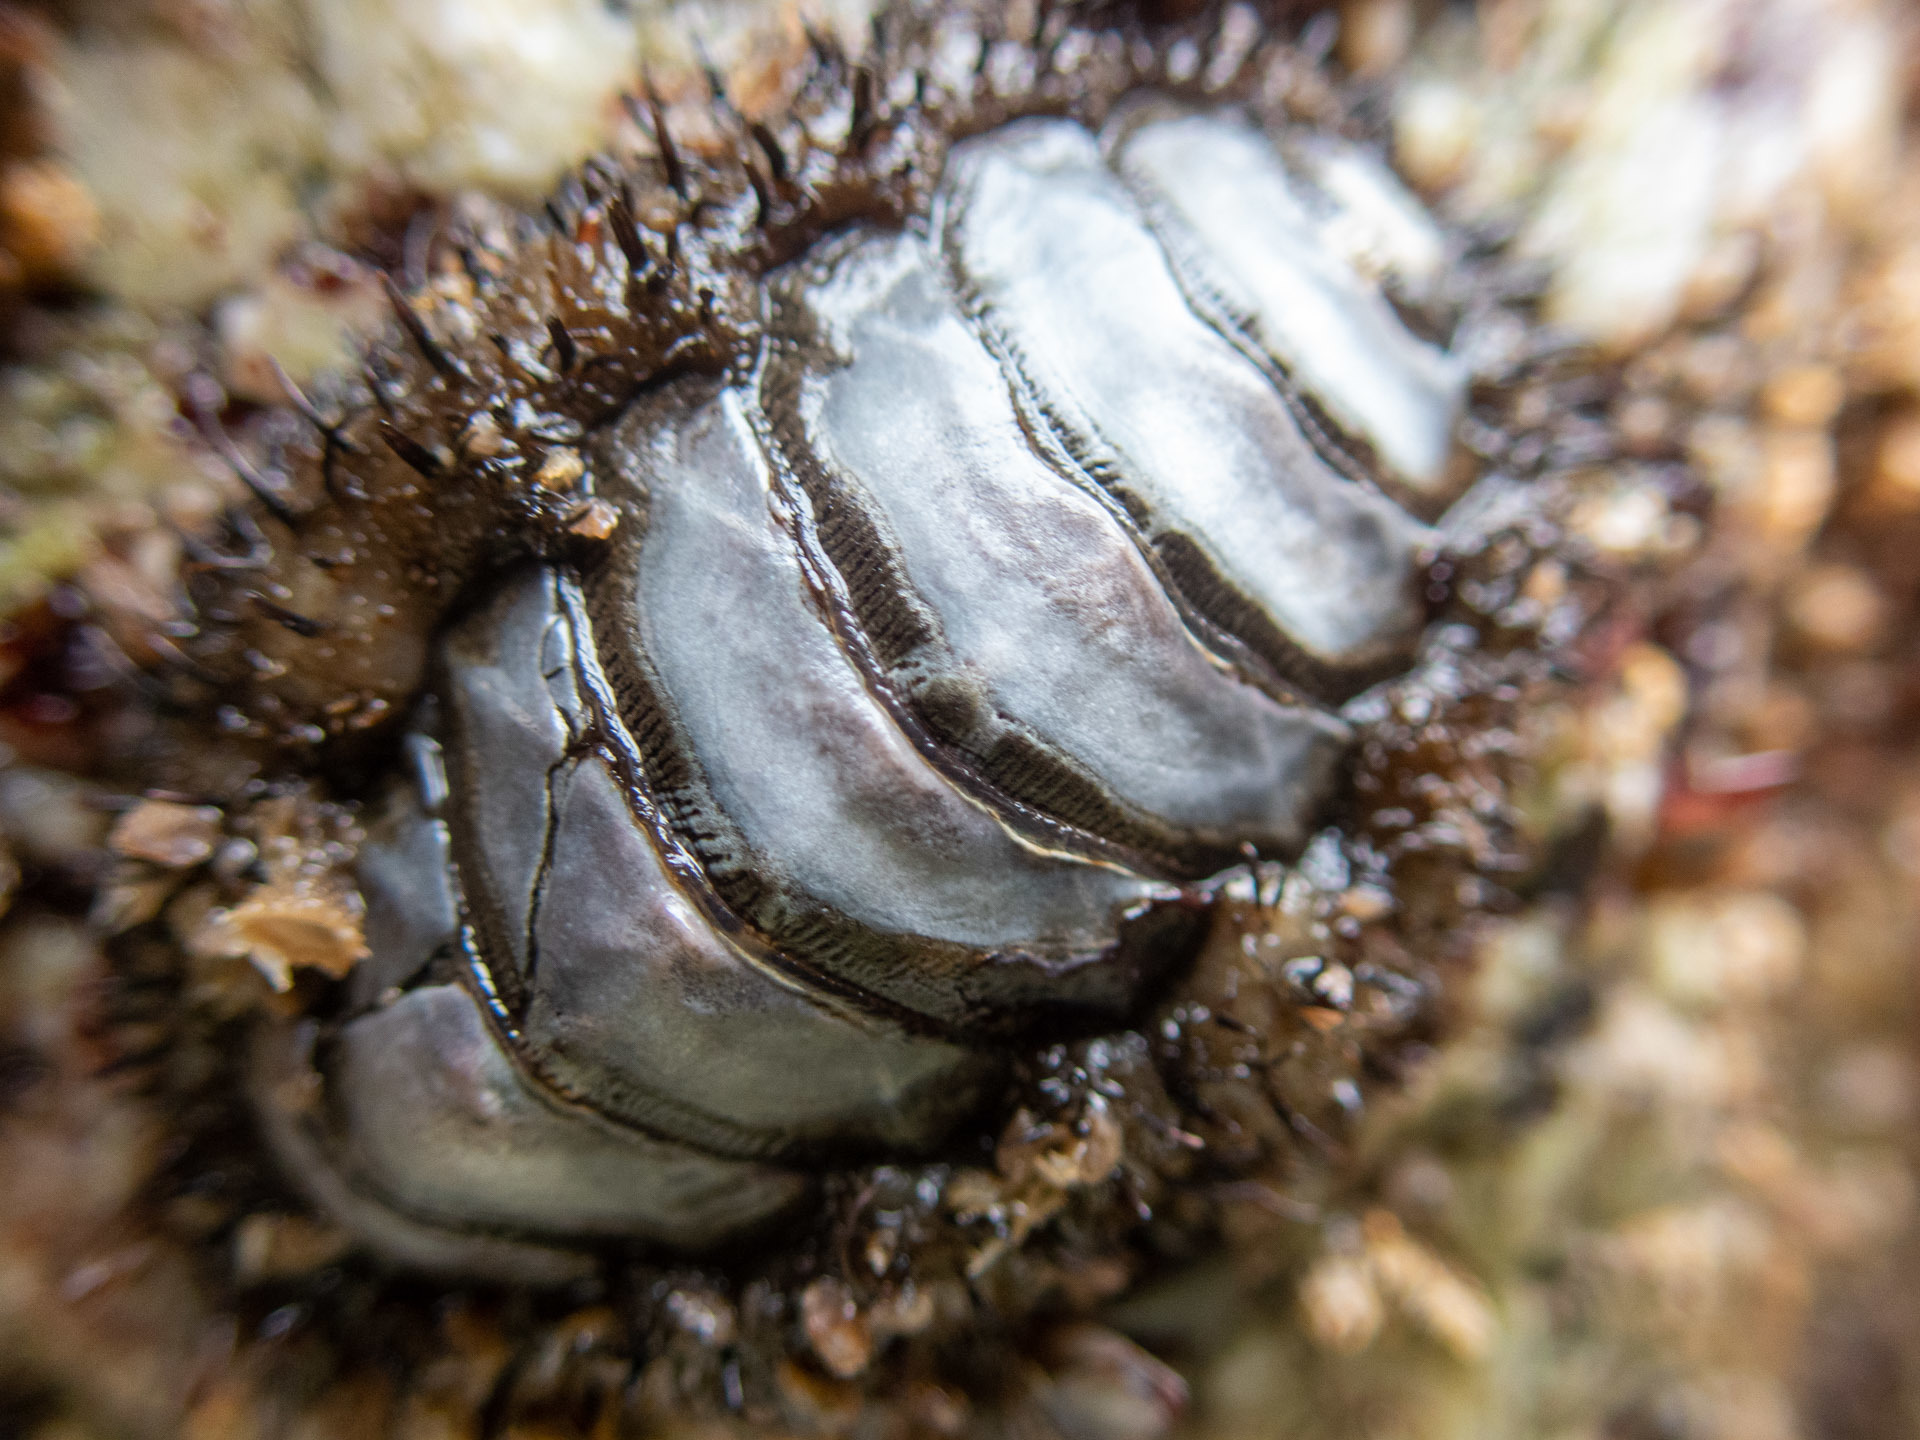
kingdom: Animalia
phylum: Mollusca
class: Polyplacophora
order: Chitonida
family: Mopaliidae
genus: Mopalia
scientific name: Mopalia muscosa
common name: Mossy chiton
